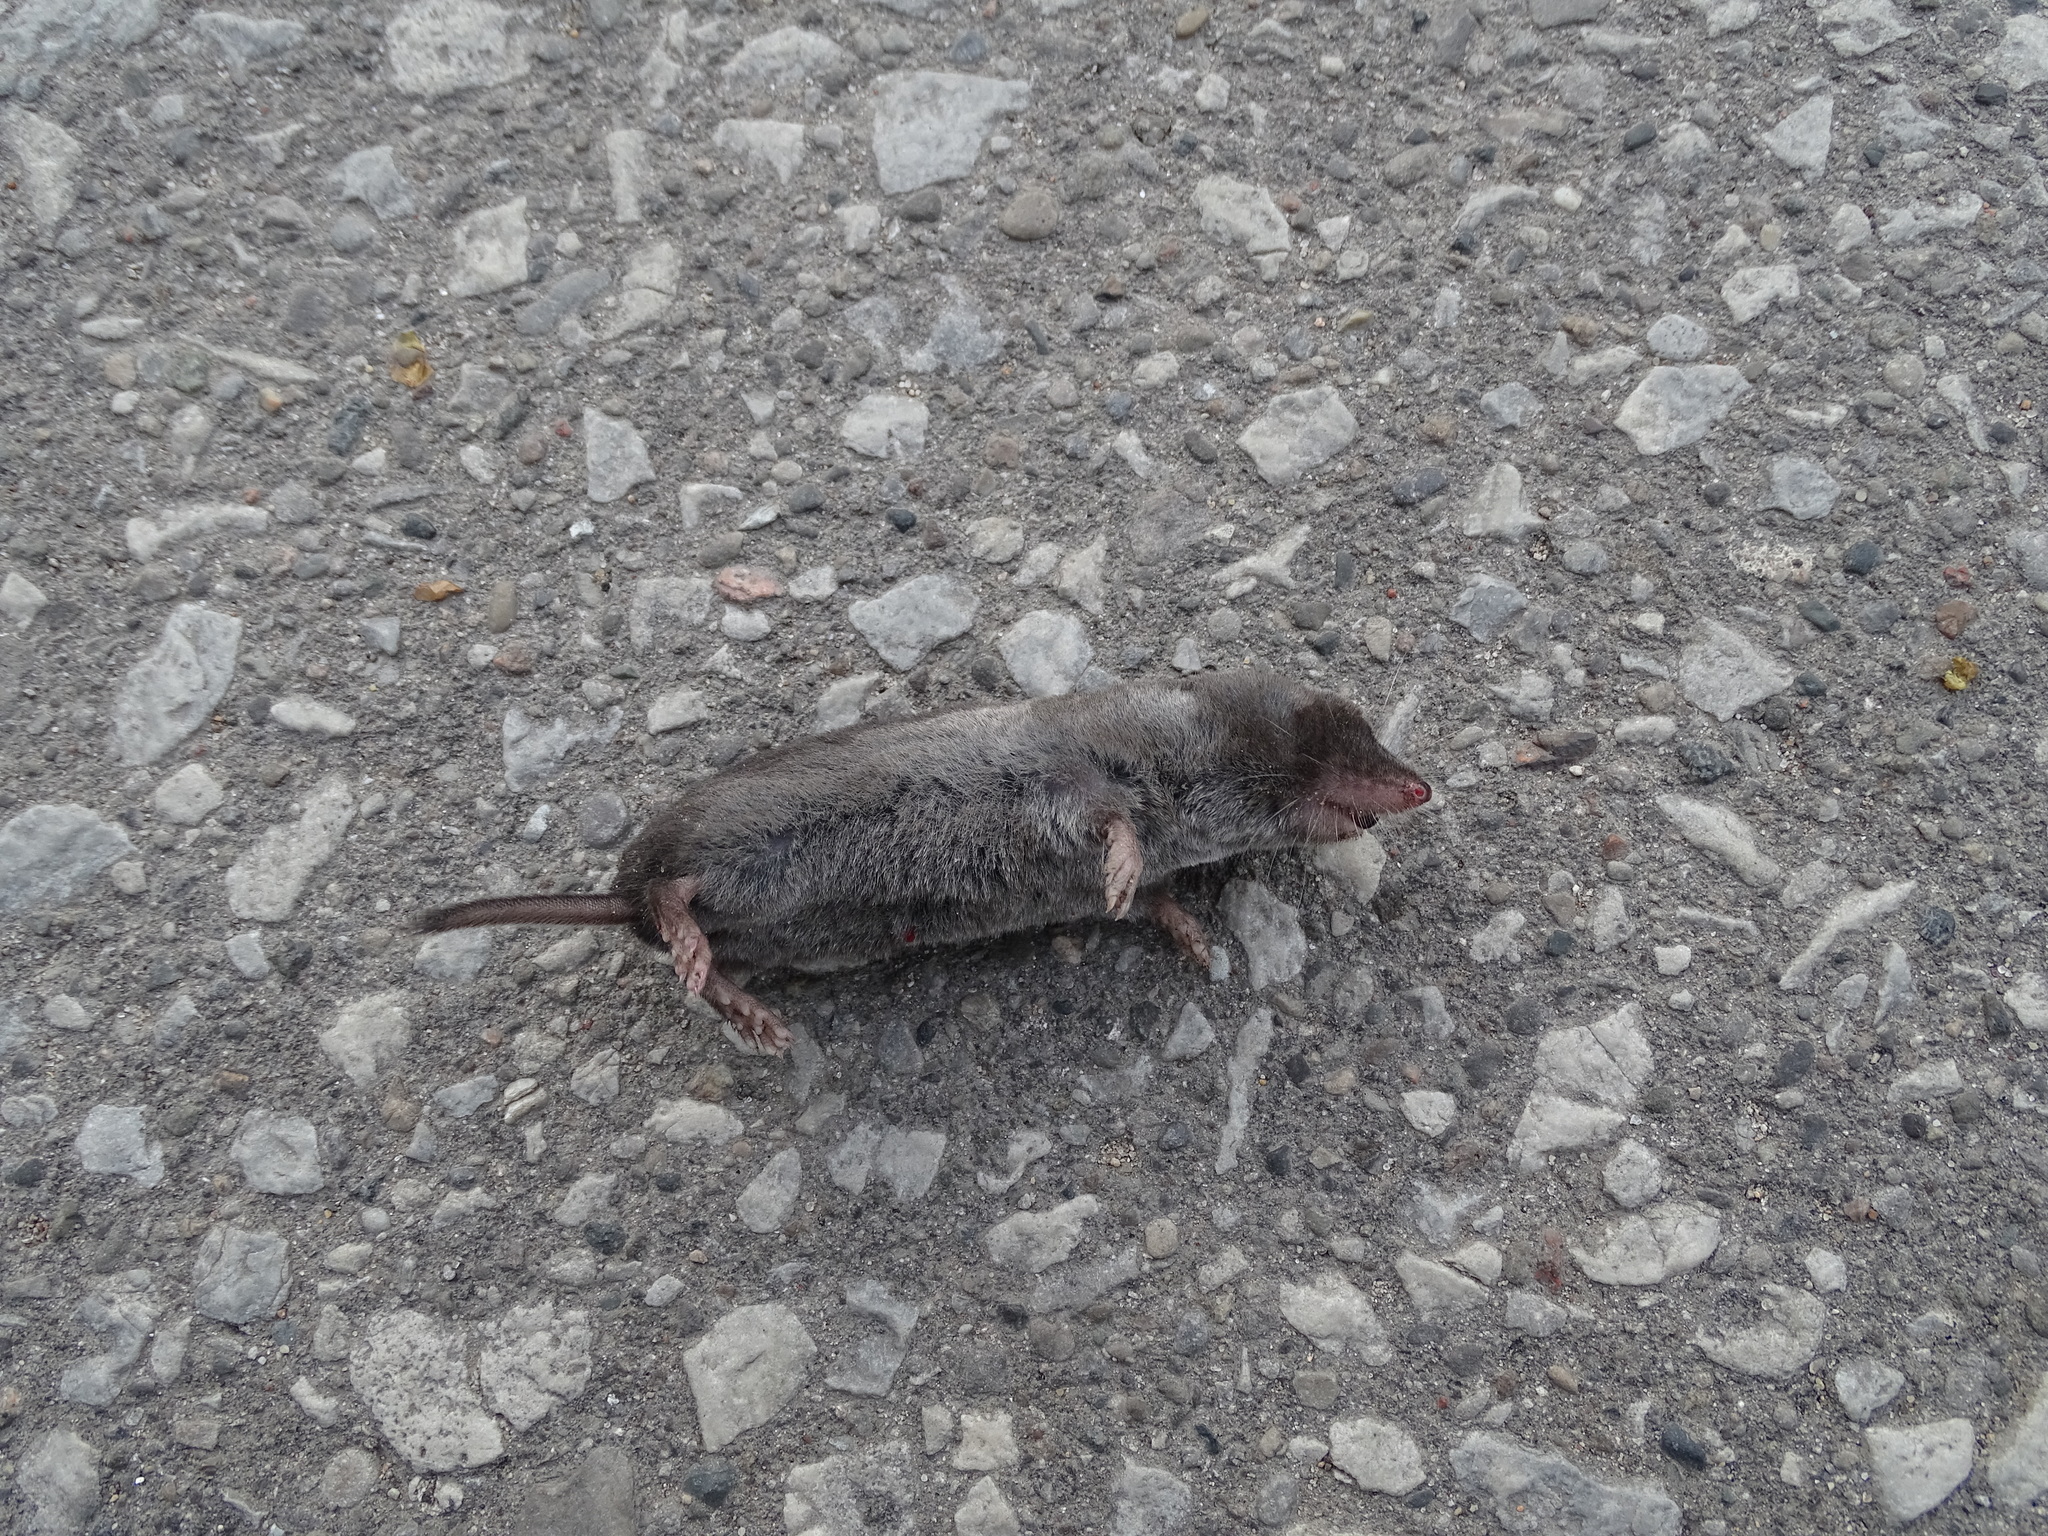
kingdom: Animalia
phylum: Chordata
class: Mammalia
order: Soricomorpha
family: Soricidae
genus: Blarina
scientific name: Blarina brevicauda
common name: Northern short-tailed shrew
